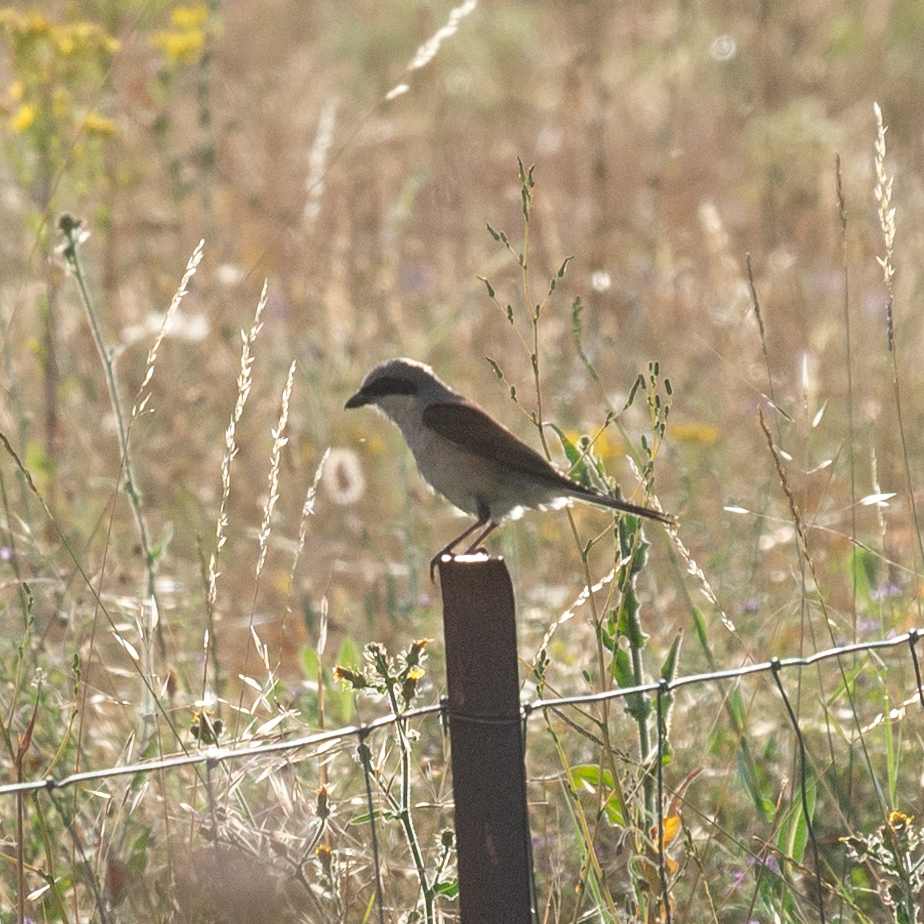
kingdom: Animalia
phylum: Chordata
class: Aves
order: Passeriformes
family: Laniidae
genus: Lanius
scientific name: Lanius collurio
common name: Red-backed shrike
